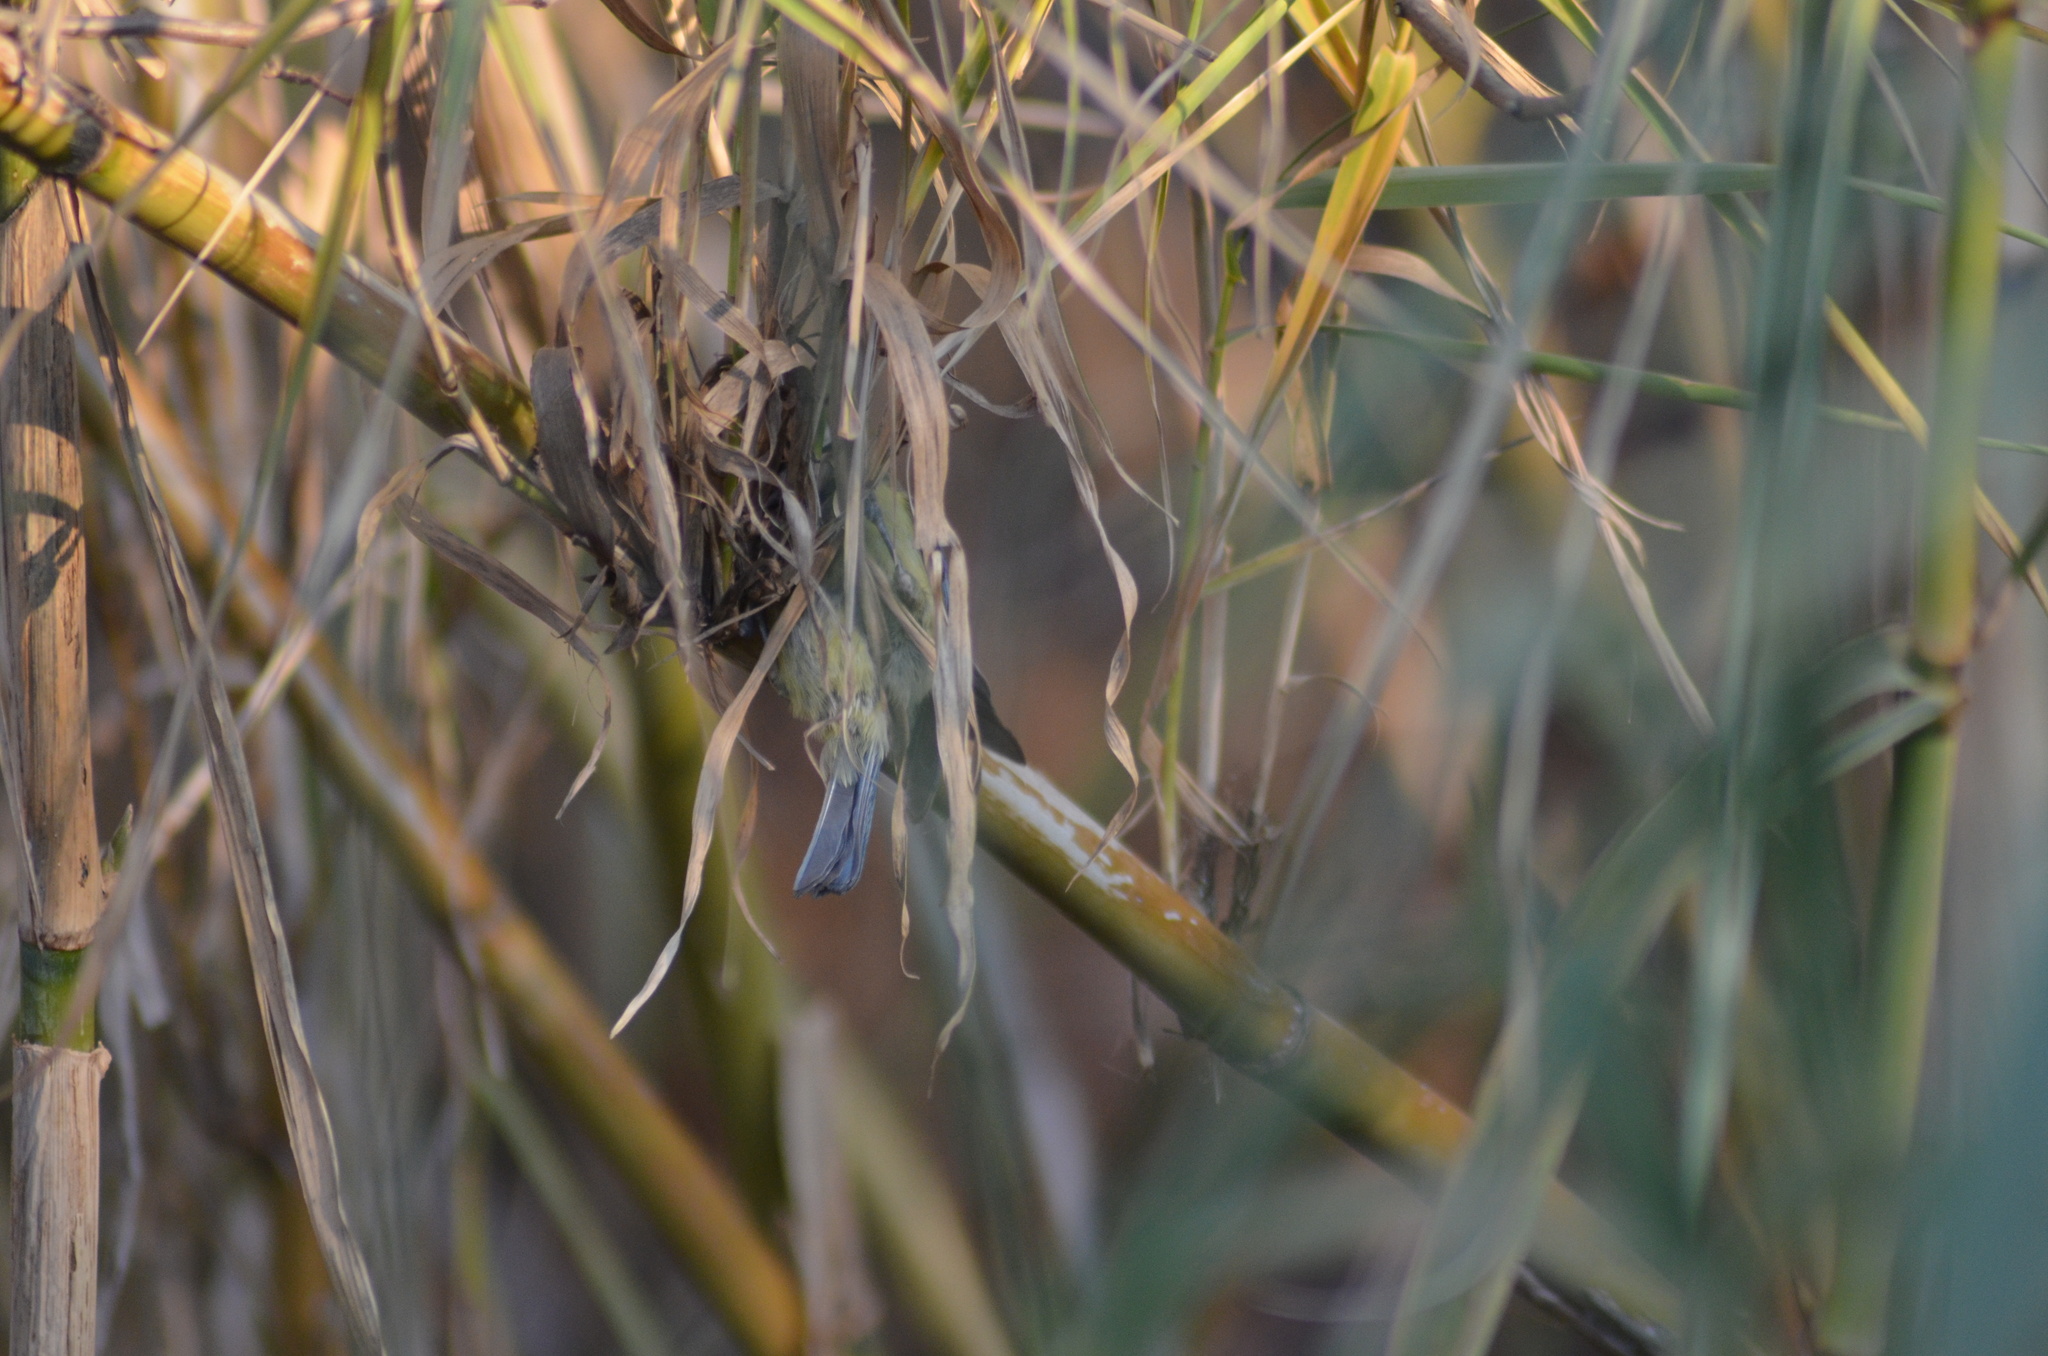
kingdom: Animalia
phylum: Chordata
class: Aves
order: Passeriformes
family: Paridae
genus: Cyanistes
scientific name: Cyanistes caeruleus
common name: Eurasian blue tit
